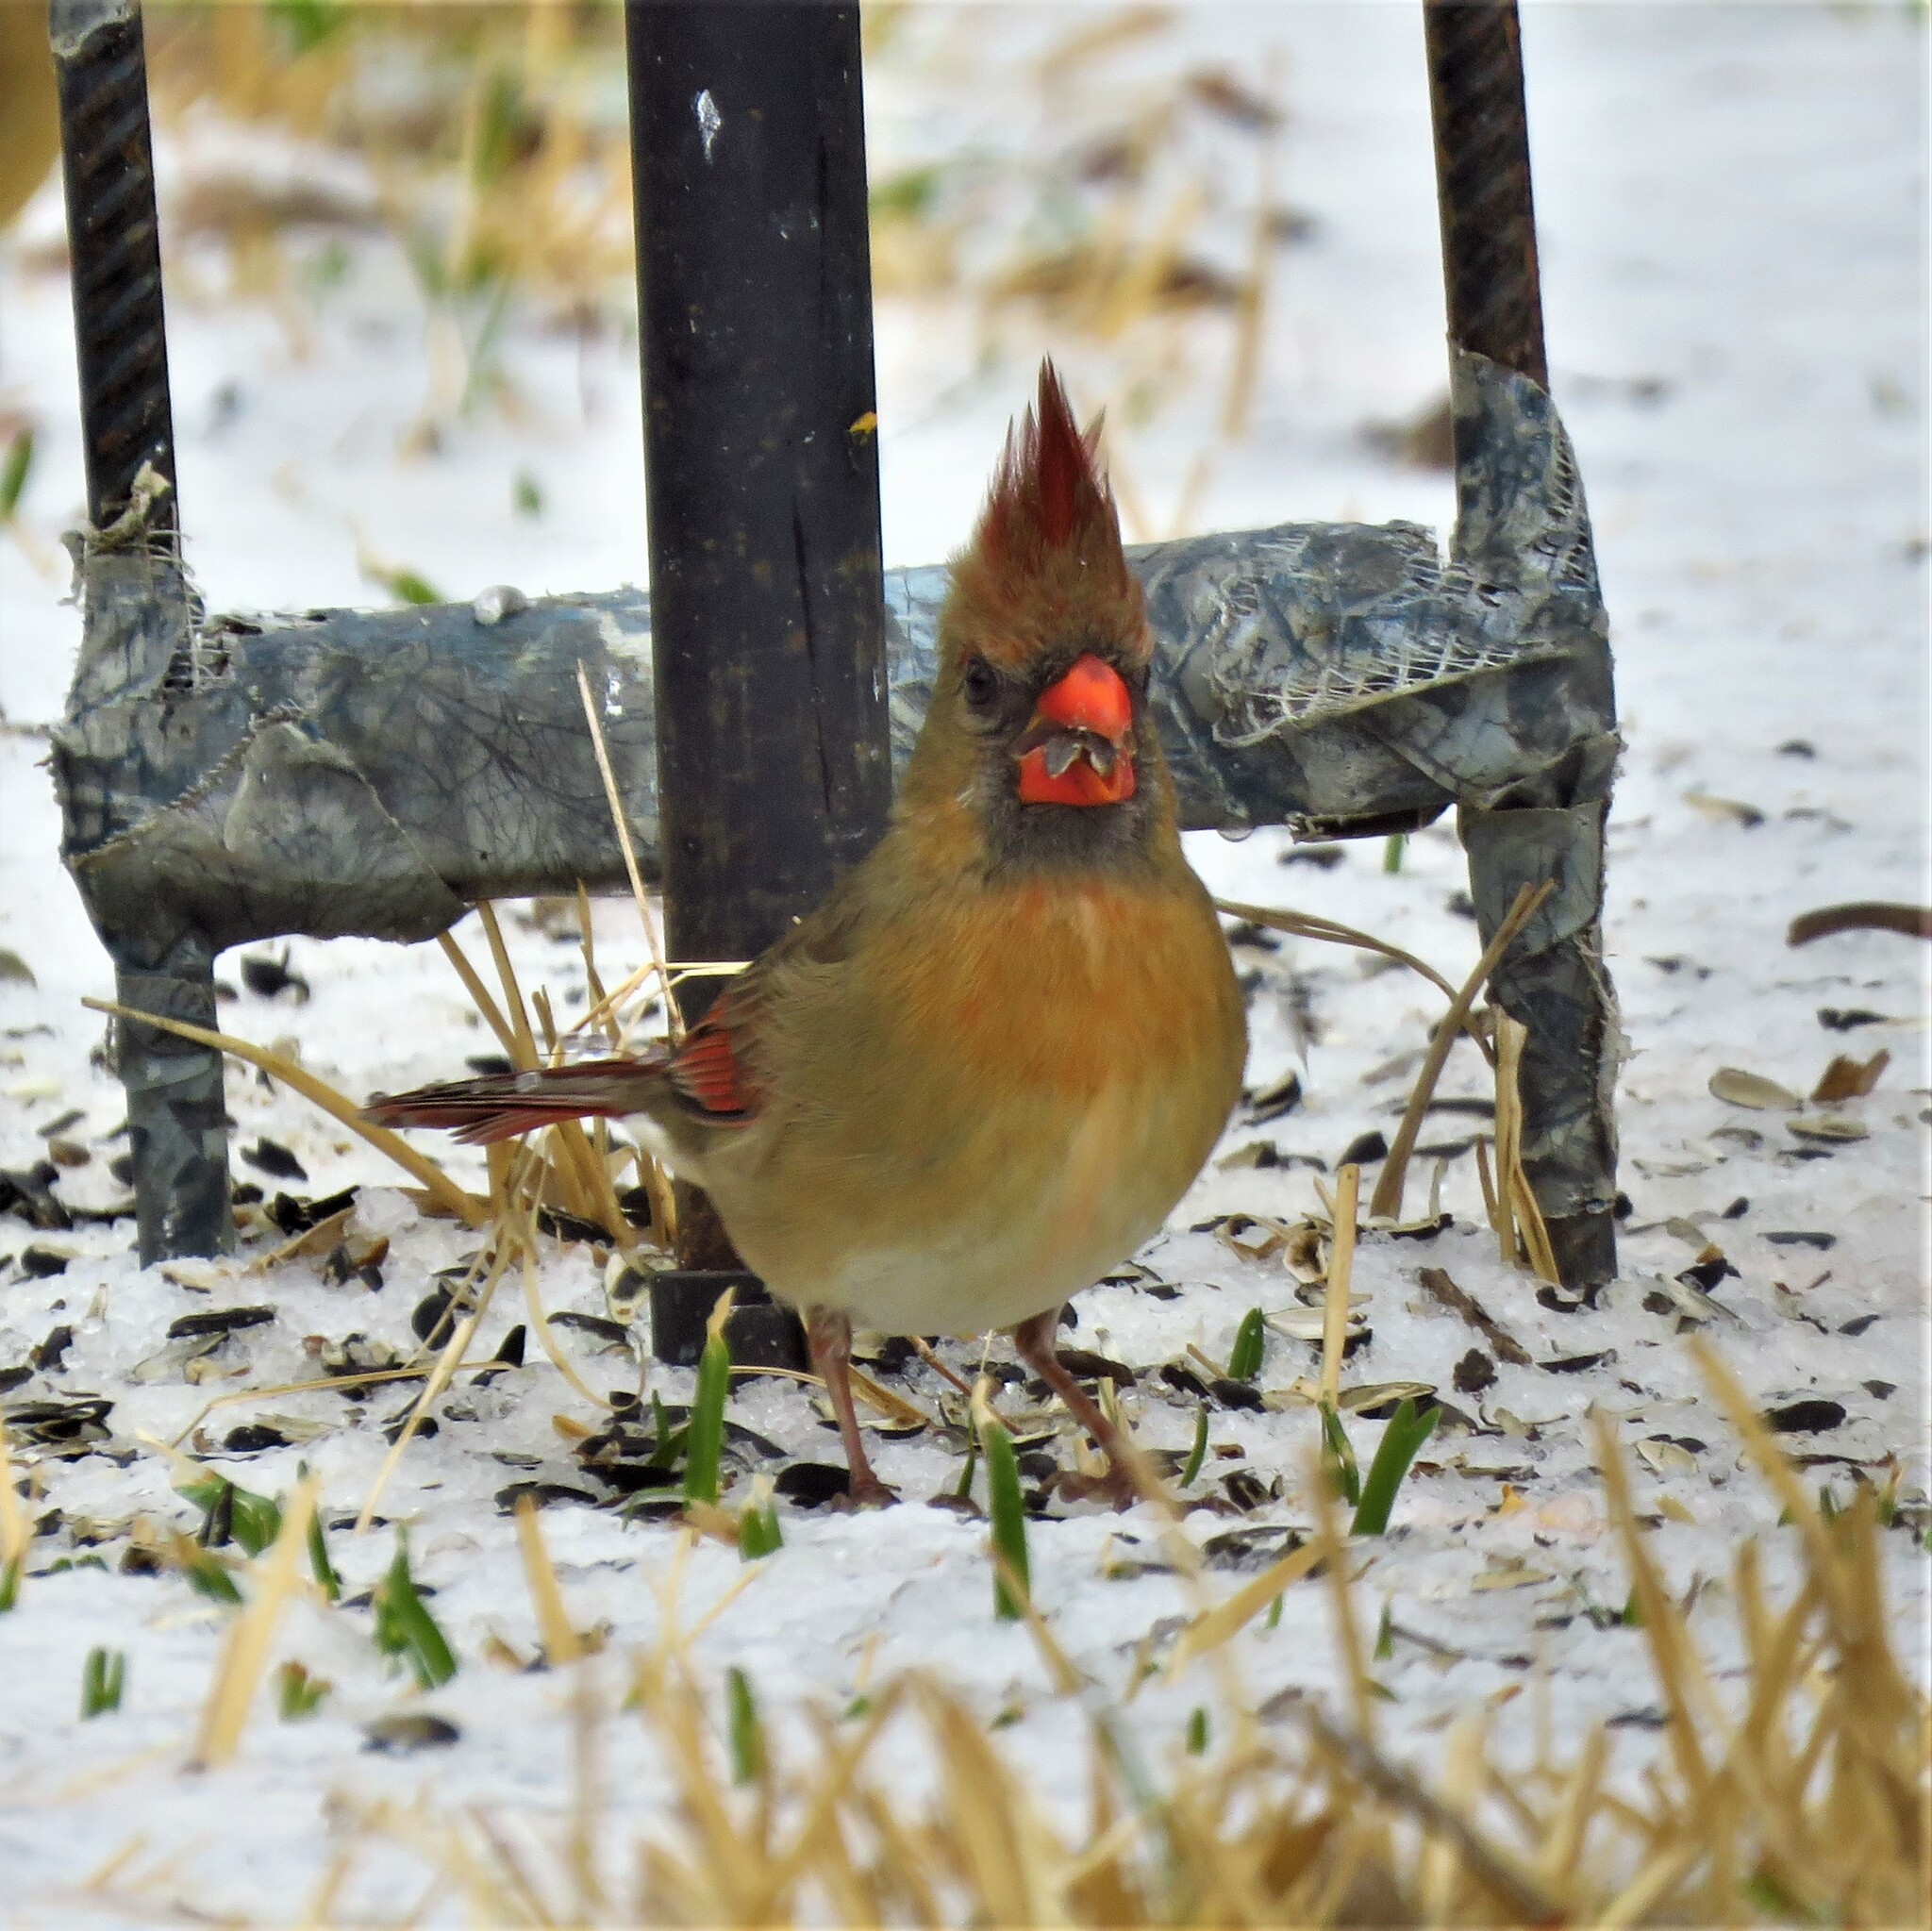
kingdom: Animalia
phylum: Chordata
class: Aves
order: Passeriformes
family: Cardinalidae
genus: Cardinalis
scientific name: Cardinalis cardinalis
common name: Northern cardinal
